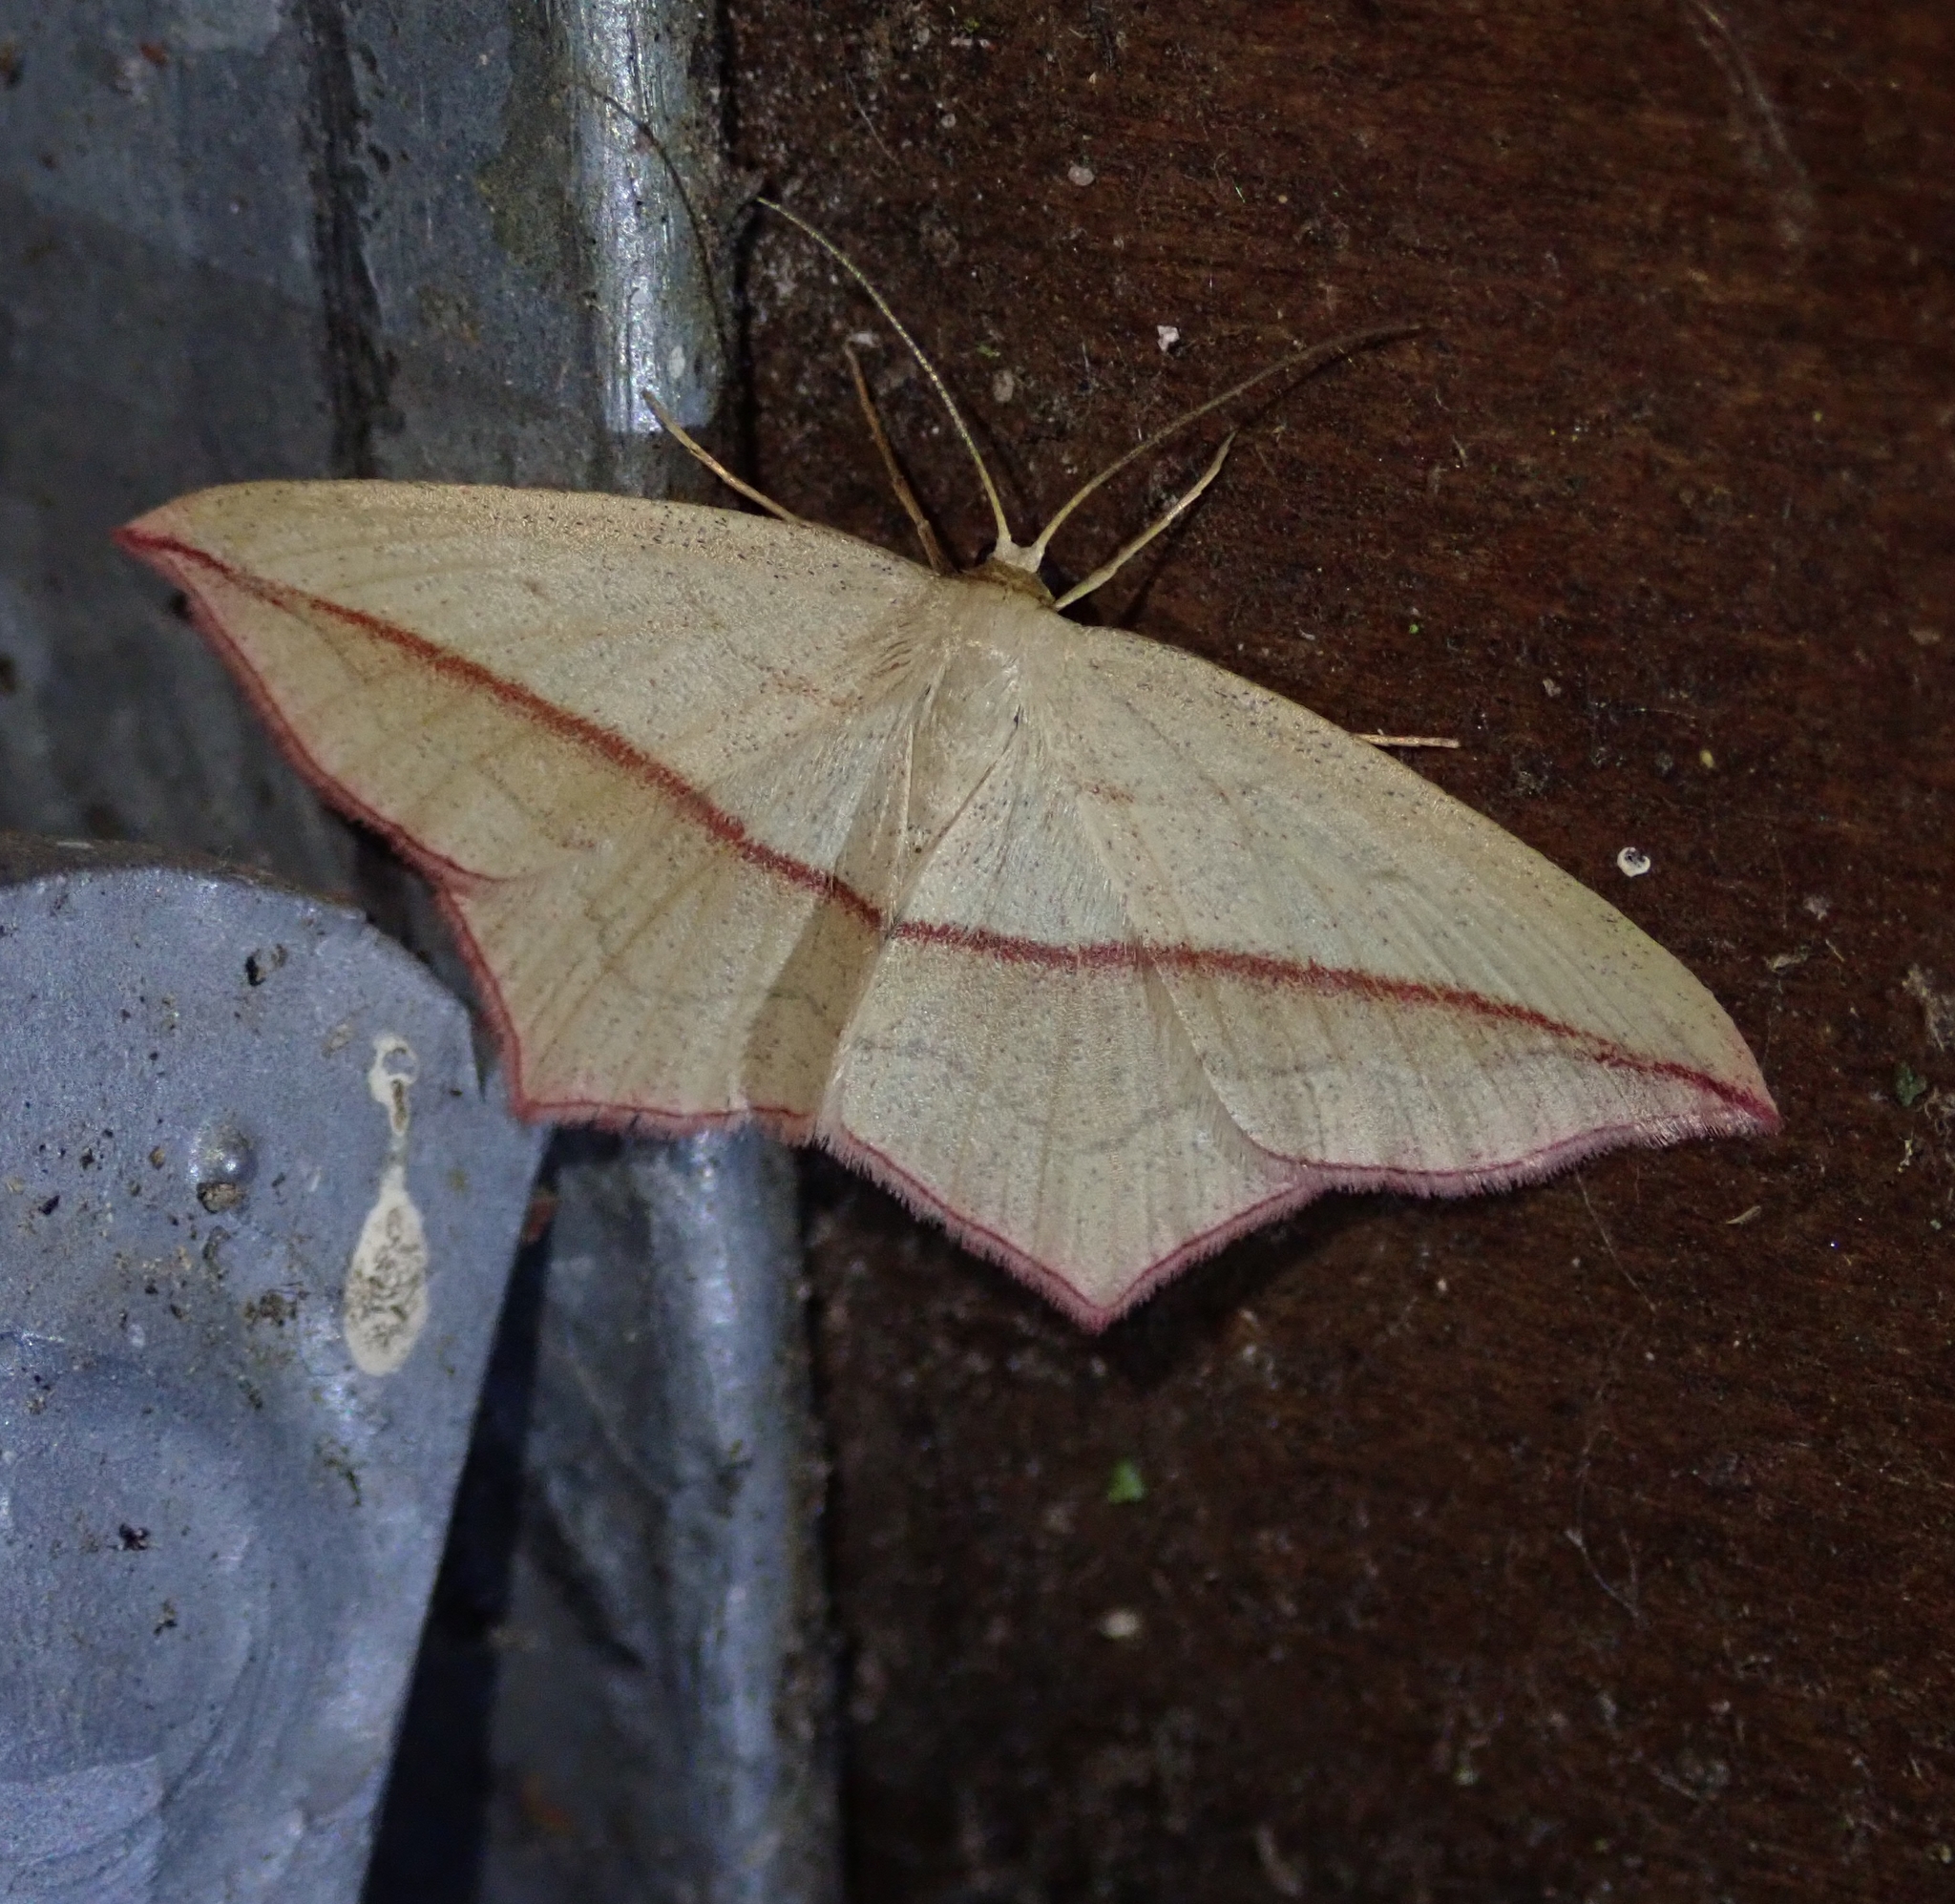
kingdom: Animalia
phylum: Arthropoda
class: Insecta
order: Lepidoptera
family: Geometridae
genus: Timandra
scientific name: Timandra comae
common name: Blood-vein
